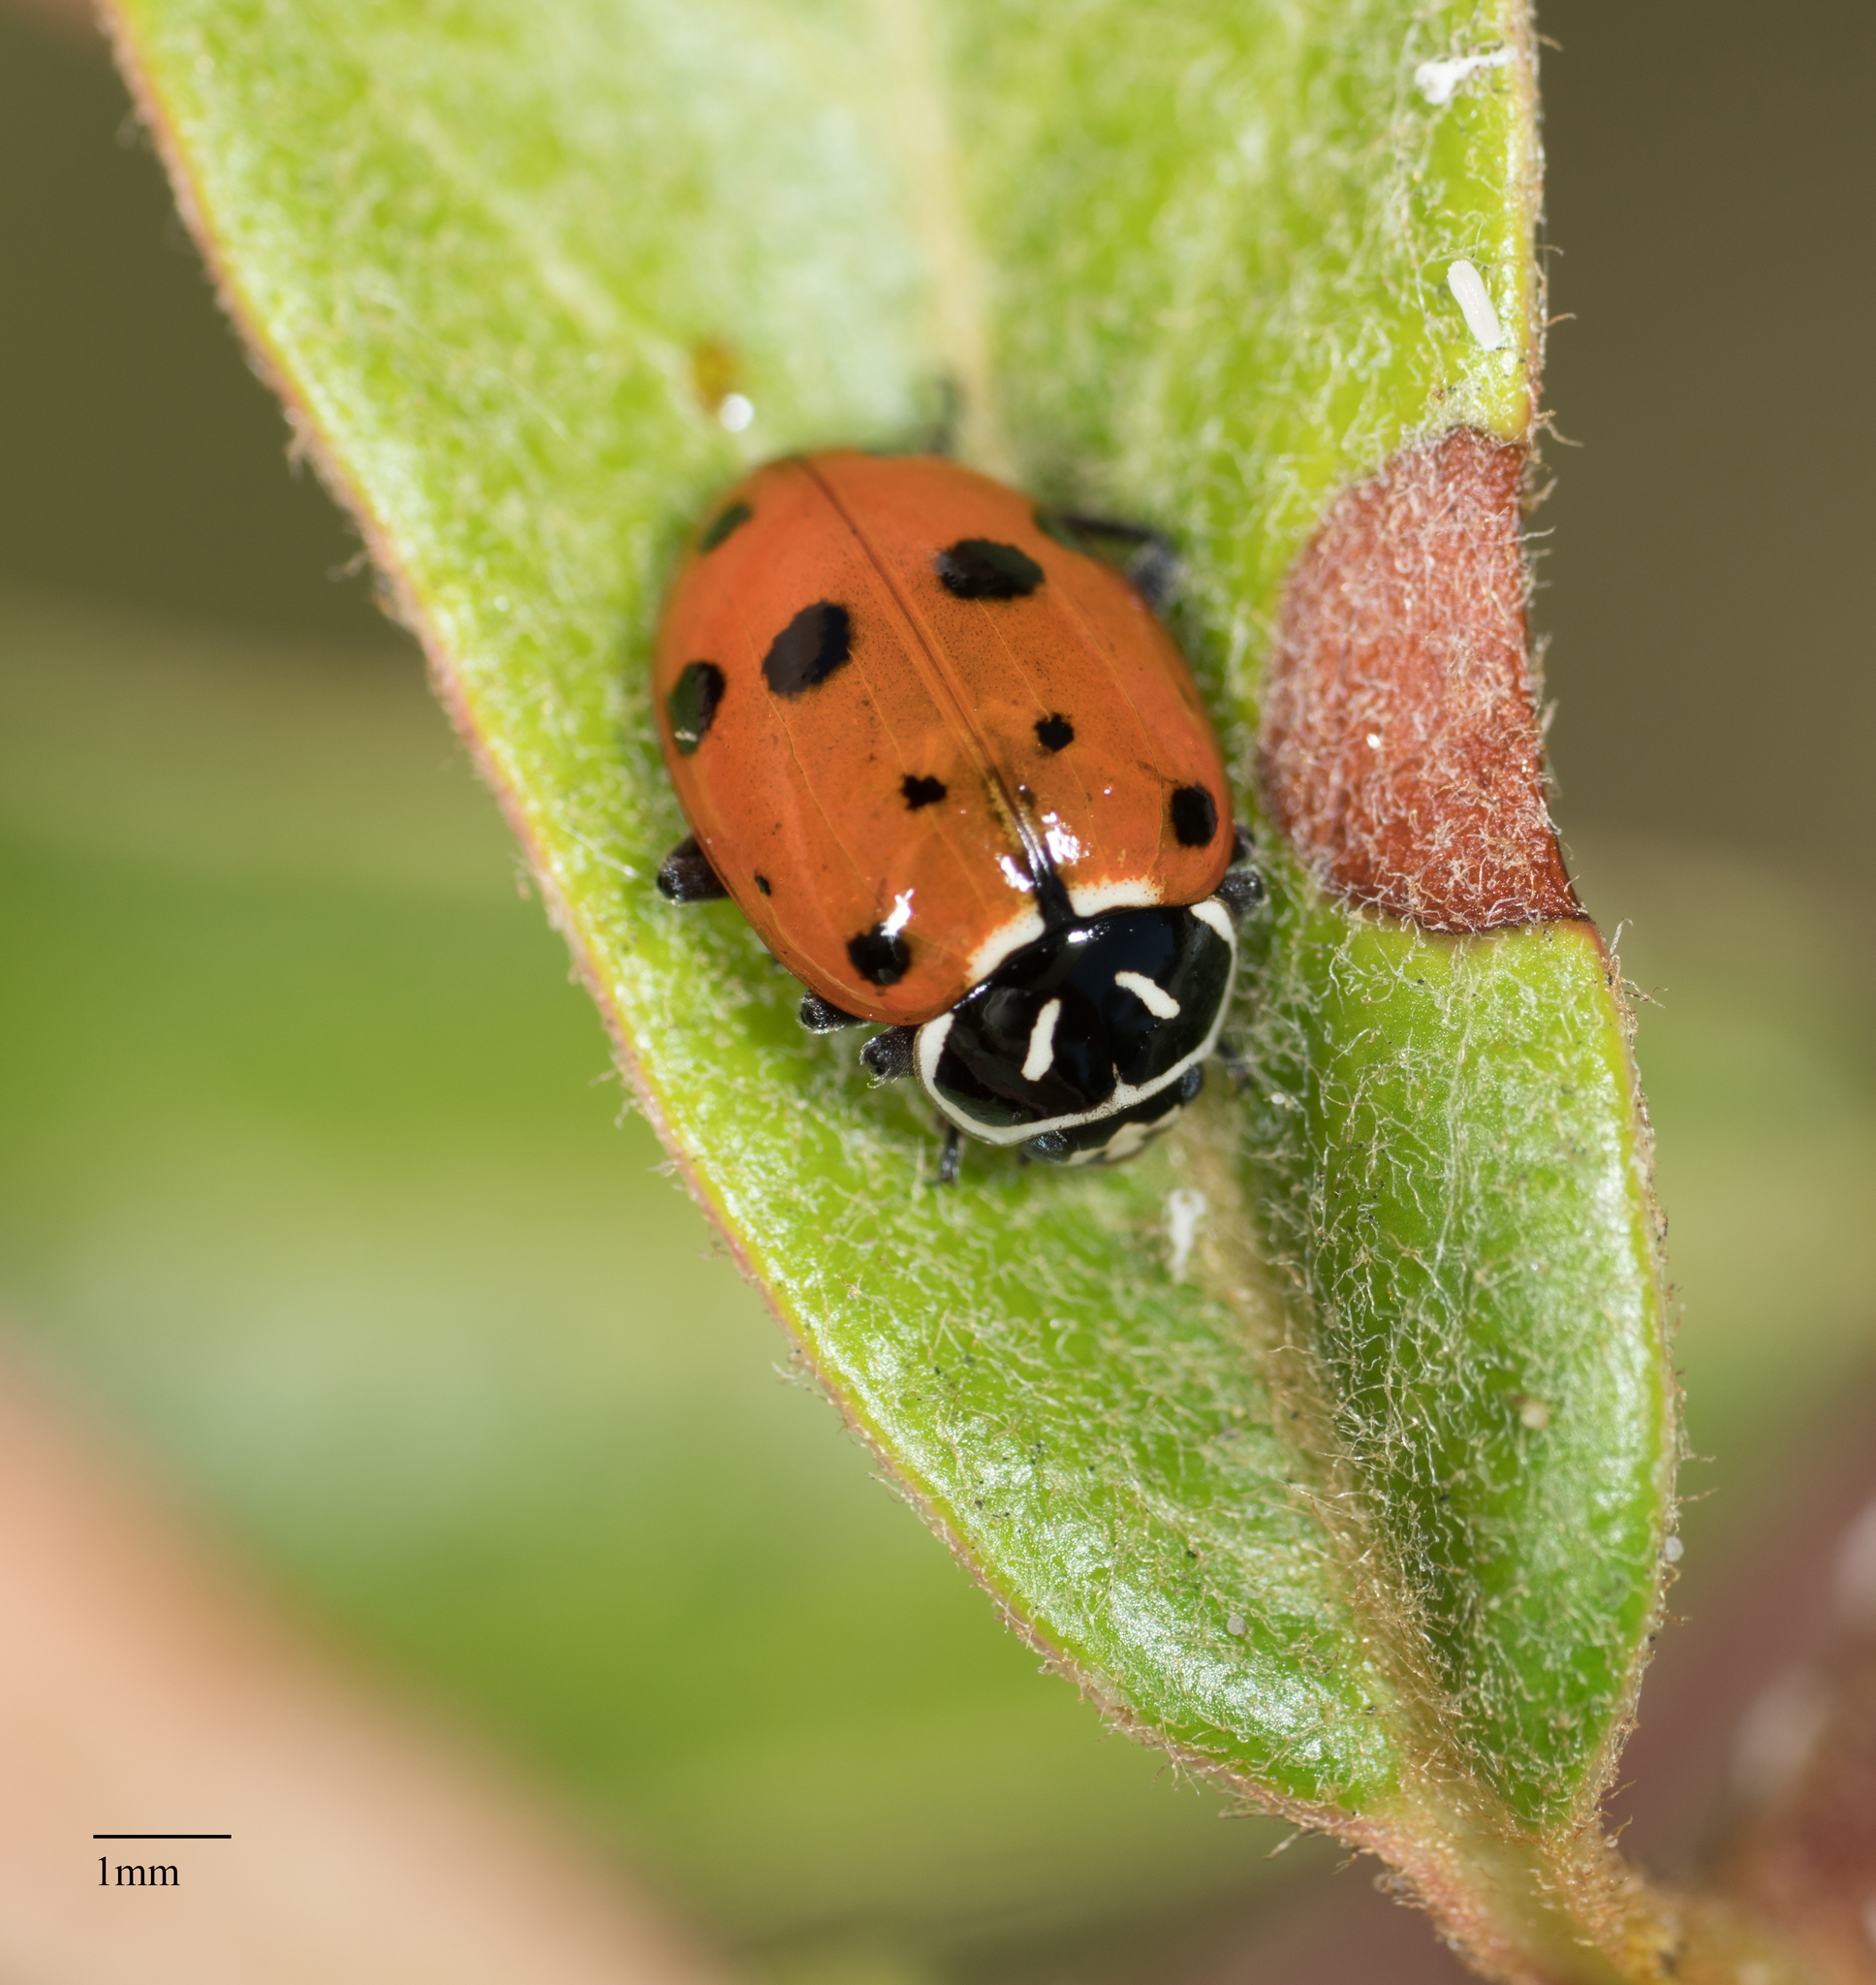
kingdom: Animalia
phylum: Arthropoda
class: Insecta
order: Coleoptera
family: Coccinellidae
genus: Hippodamia
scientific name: Hippodamia convergens
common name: Convergent lady beetle
